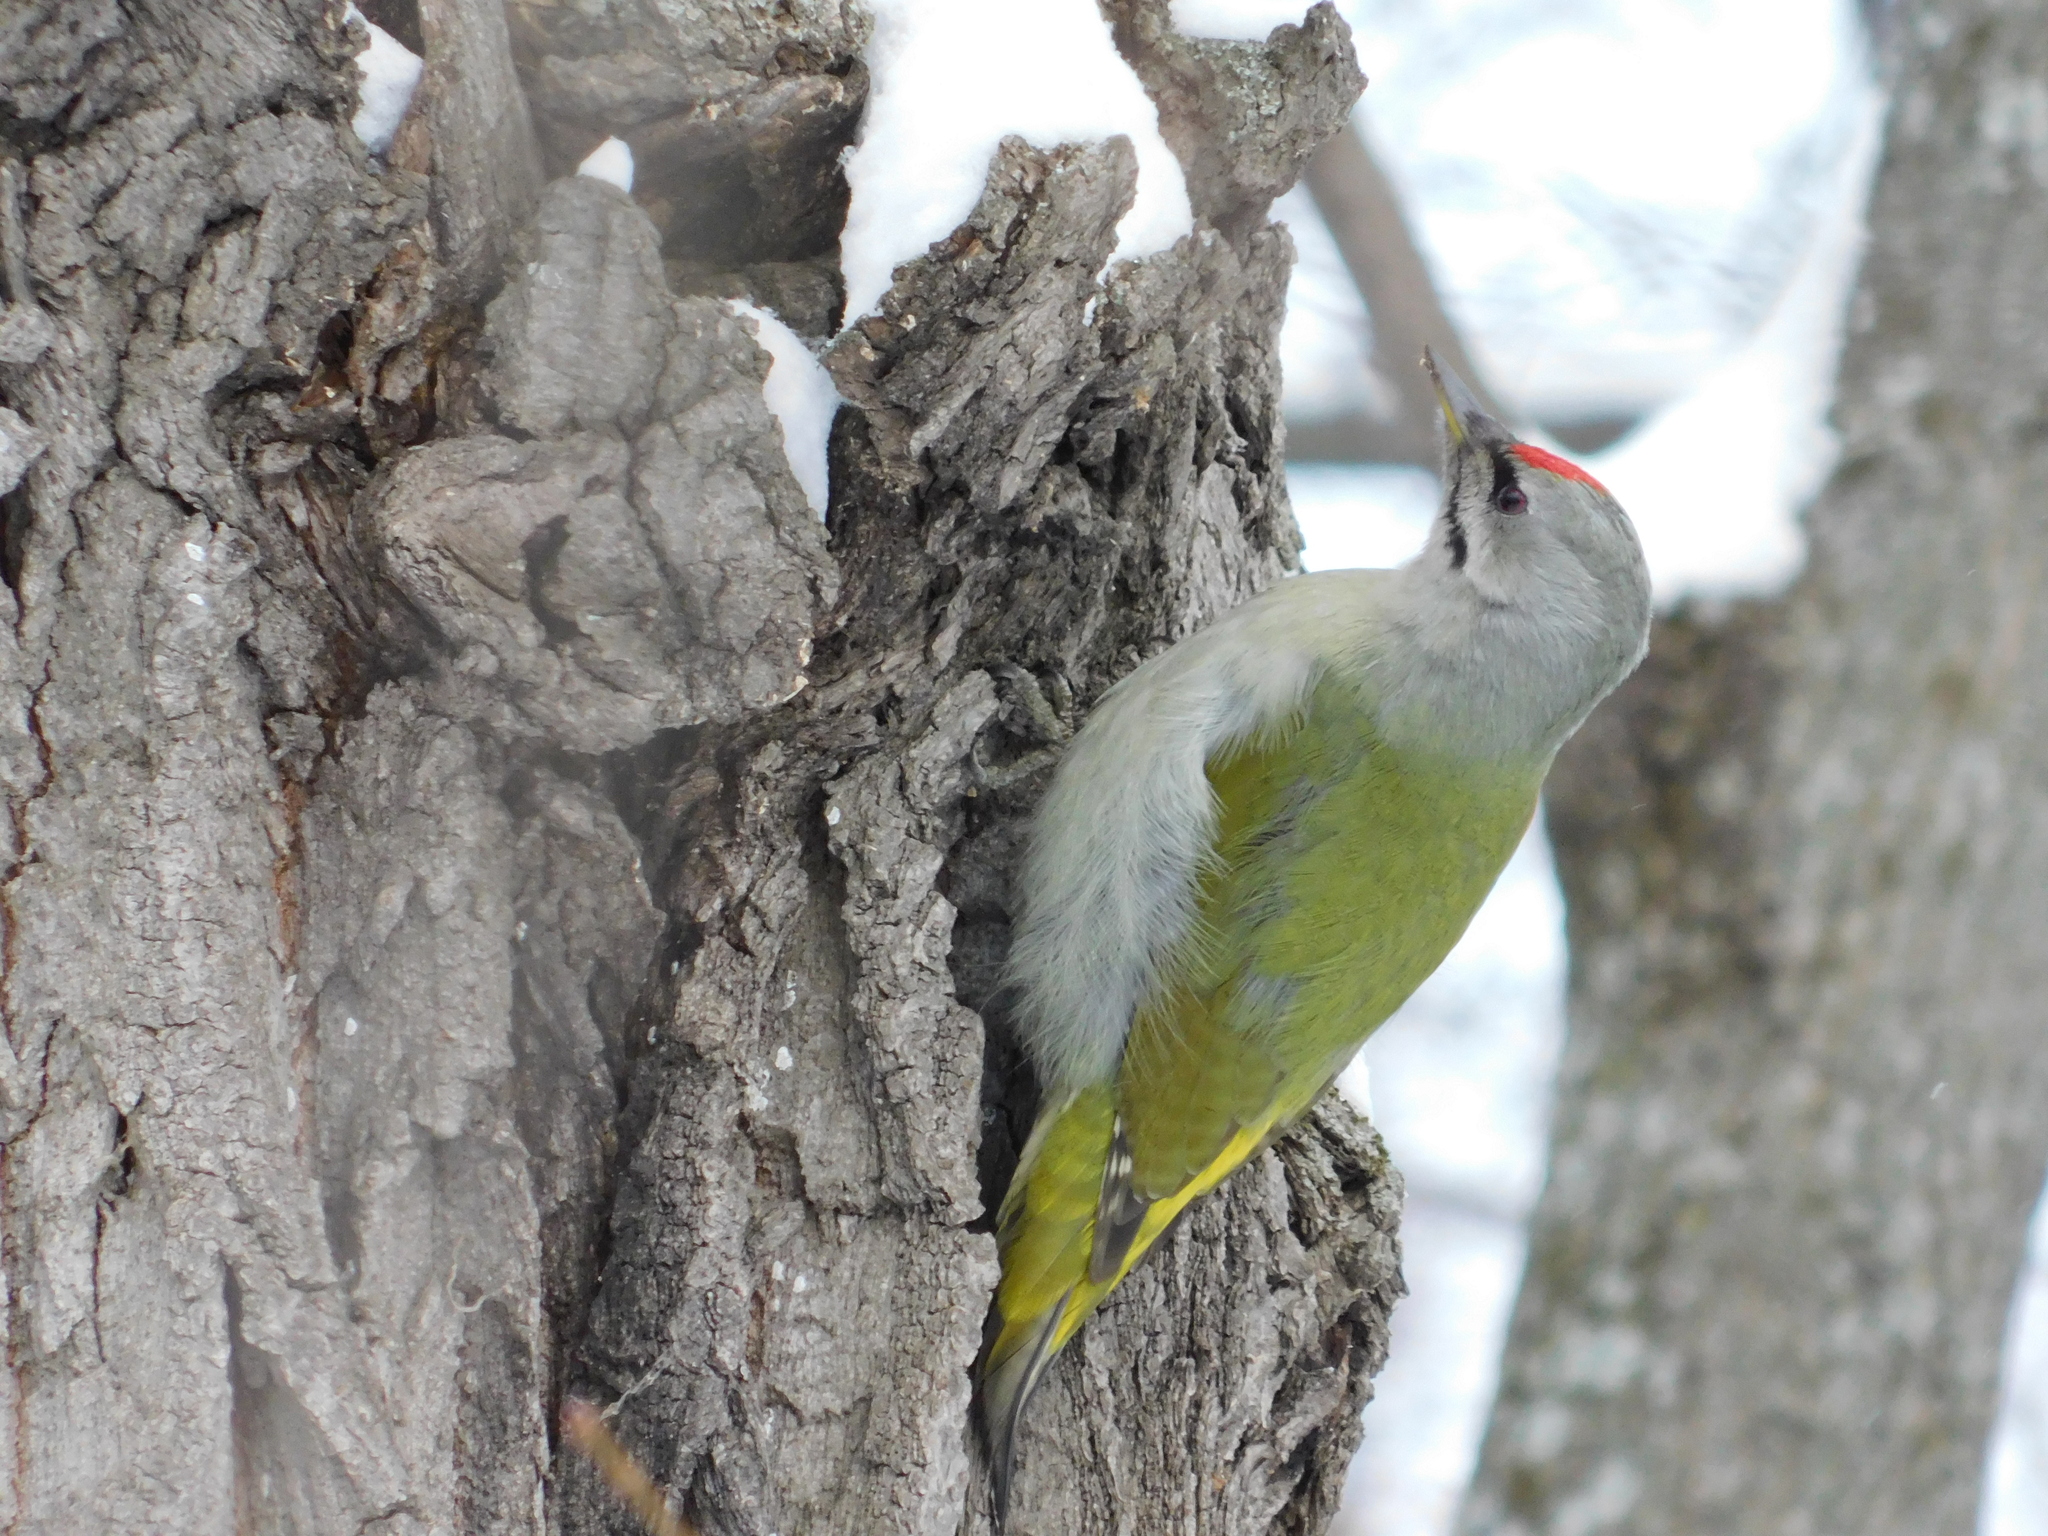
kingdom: Animalia
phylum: Chordata
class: Aves
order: Piciformes
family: Picidae
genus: Picus
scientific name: Picus canus
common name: Grey-headed woodpecker
